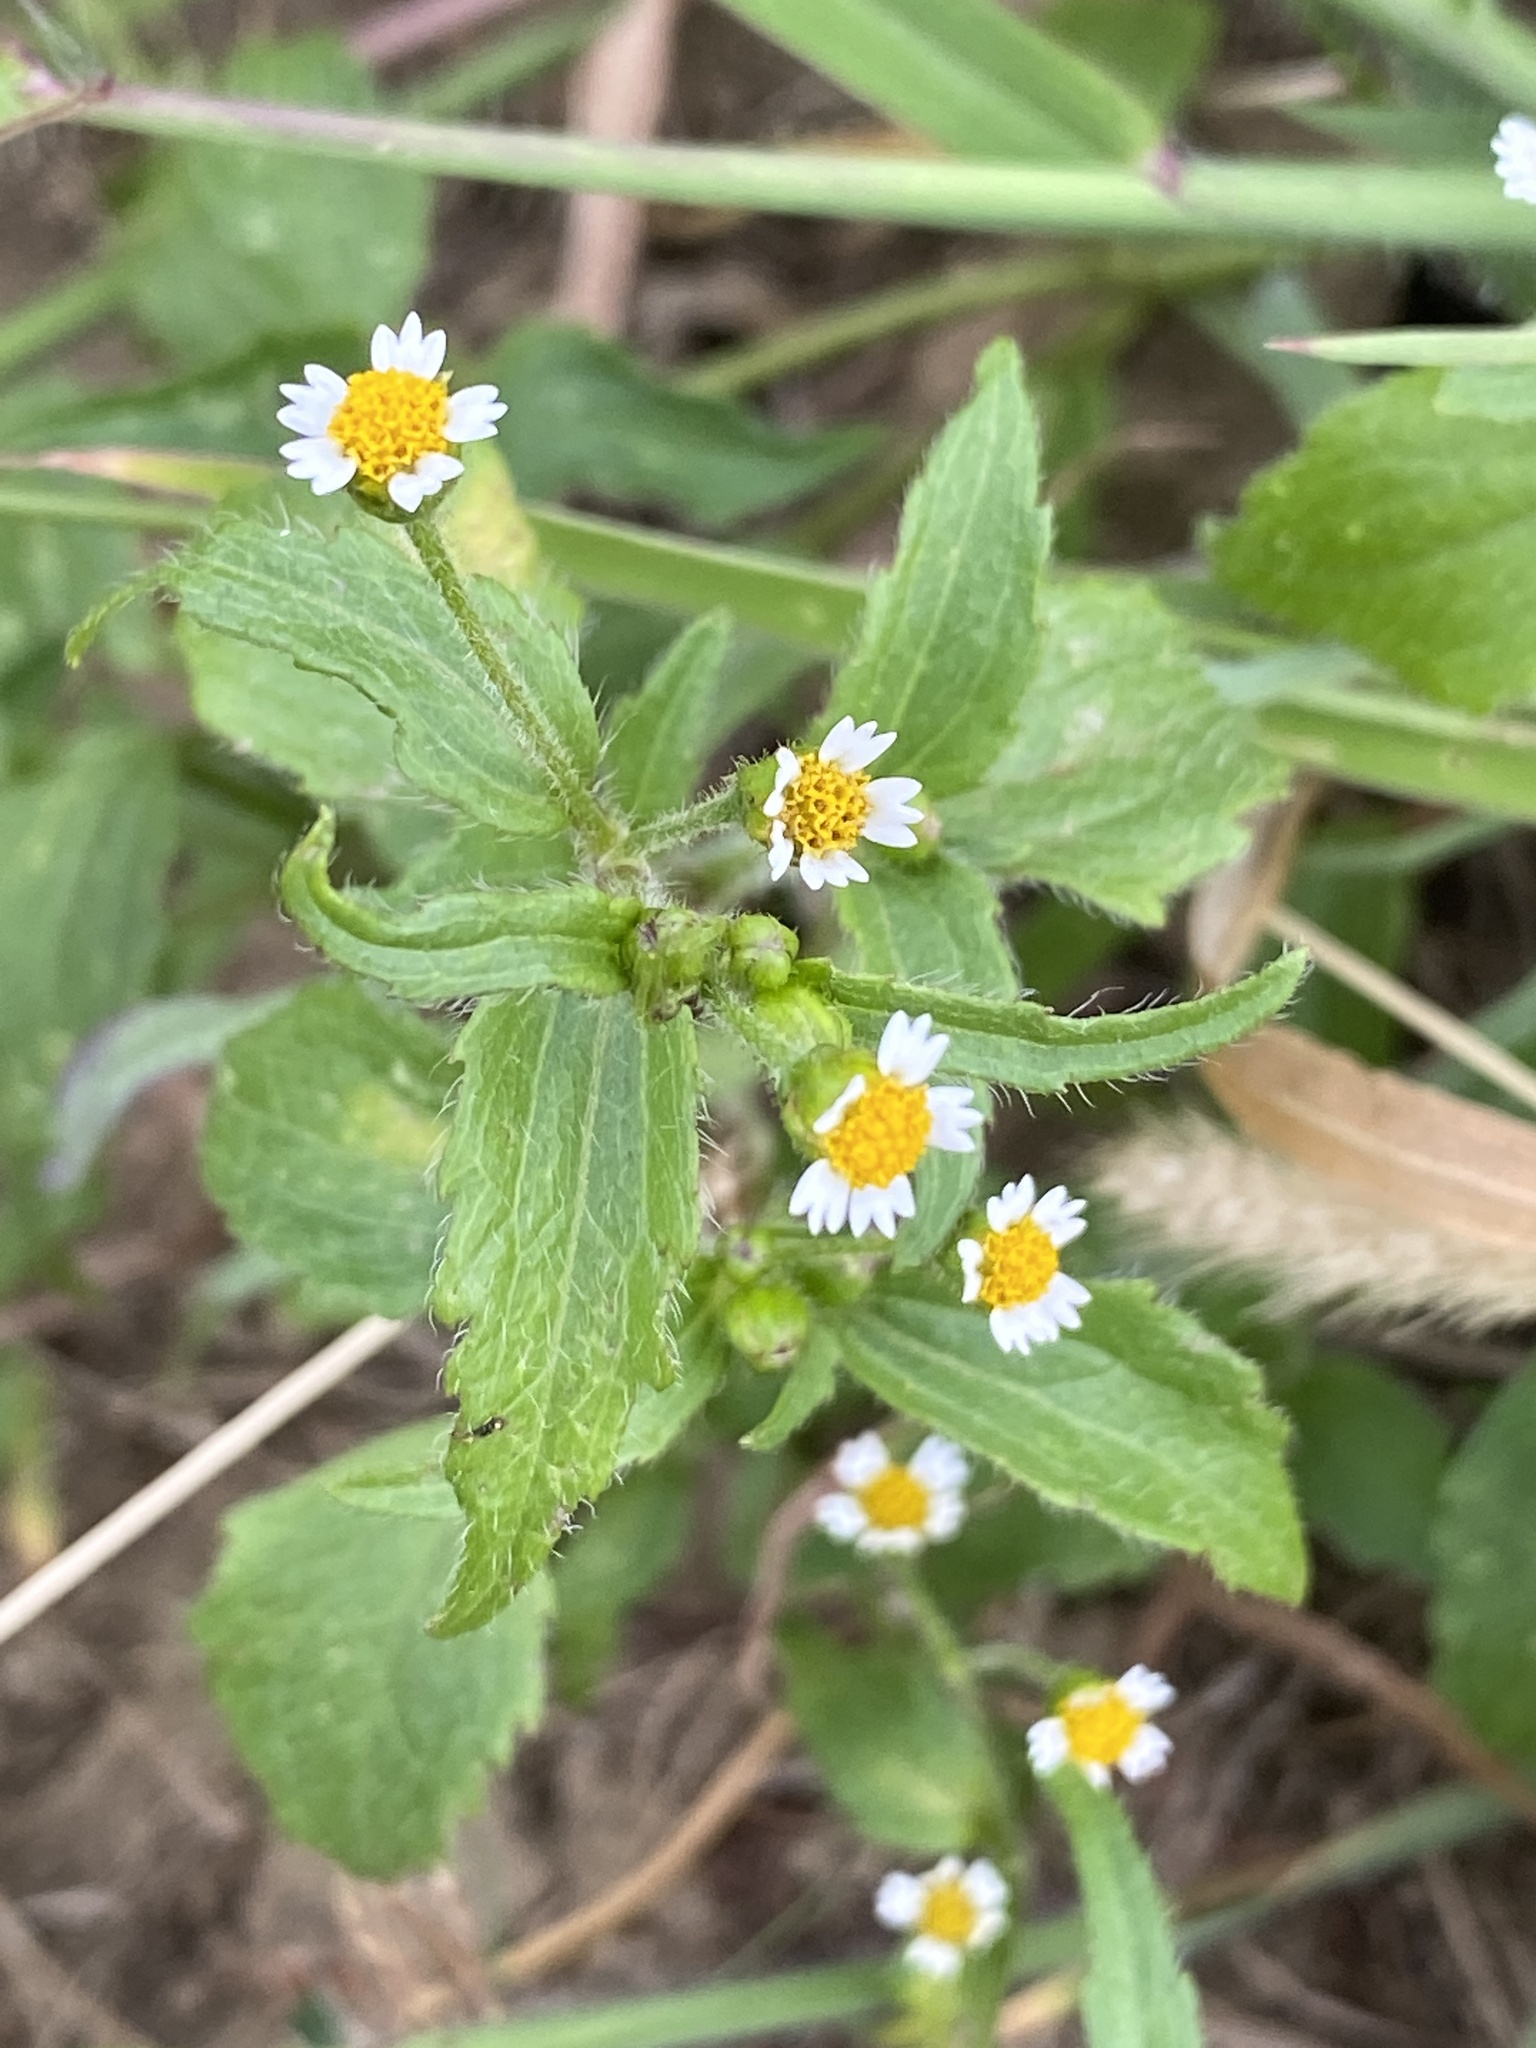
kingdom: Plantae
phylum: Tracheophyta
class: Magnoliopsida
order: Asterales
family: Asteraceae
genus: Galinsoga
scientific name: Galinsoga quadriradiata
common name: Shaggy soldier
